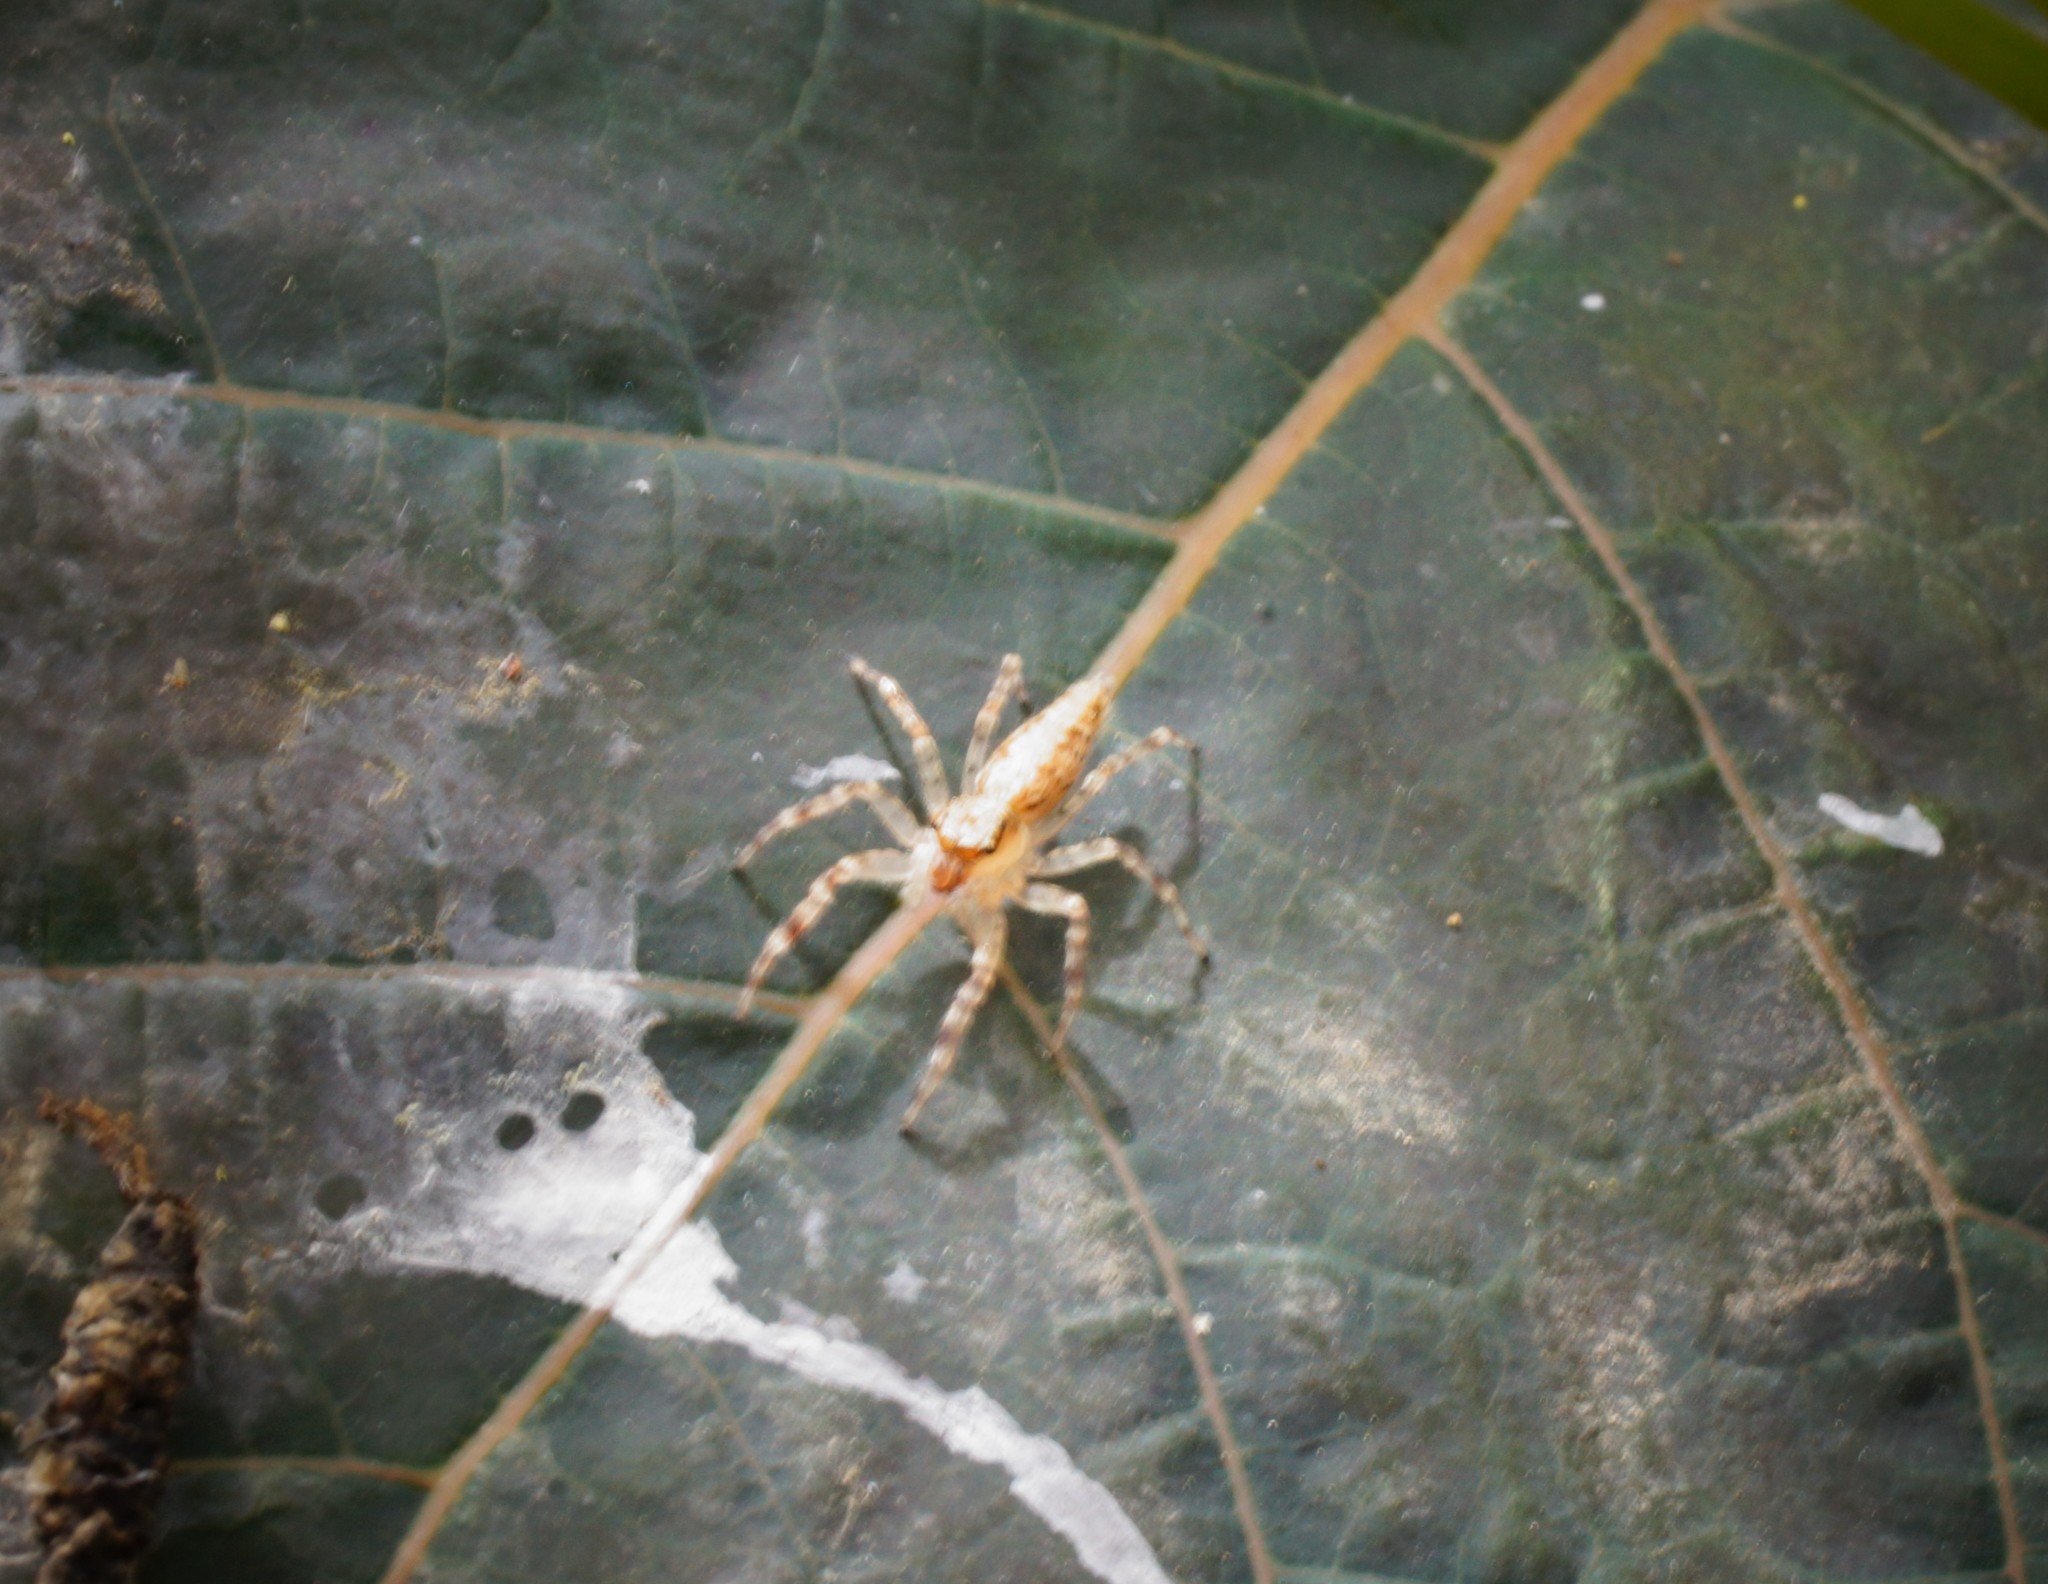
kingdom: Animalia
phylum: Arthropoda
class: Arachnida
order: Araneae
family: Salticidae
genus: Helpis
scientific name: Helpis minitabunda
